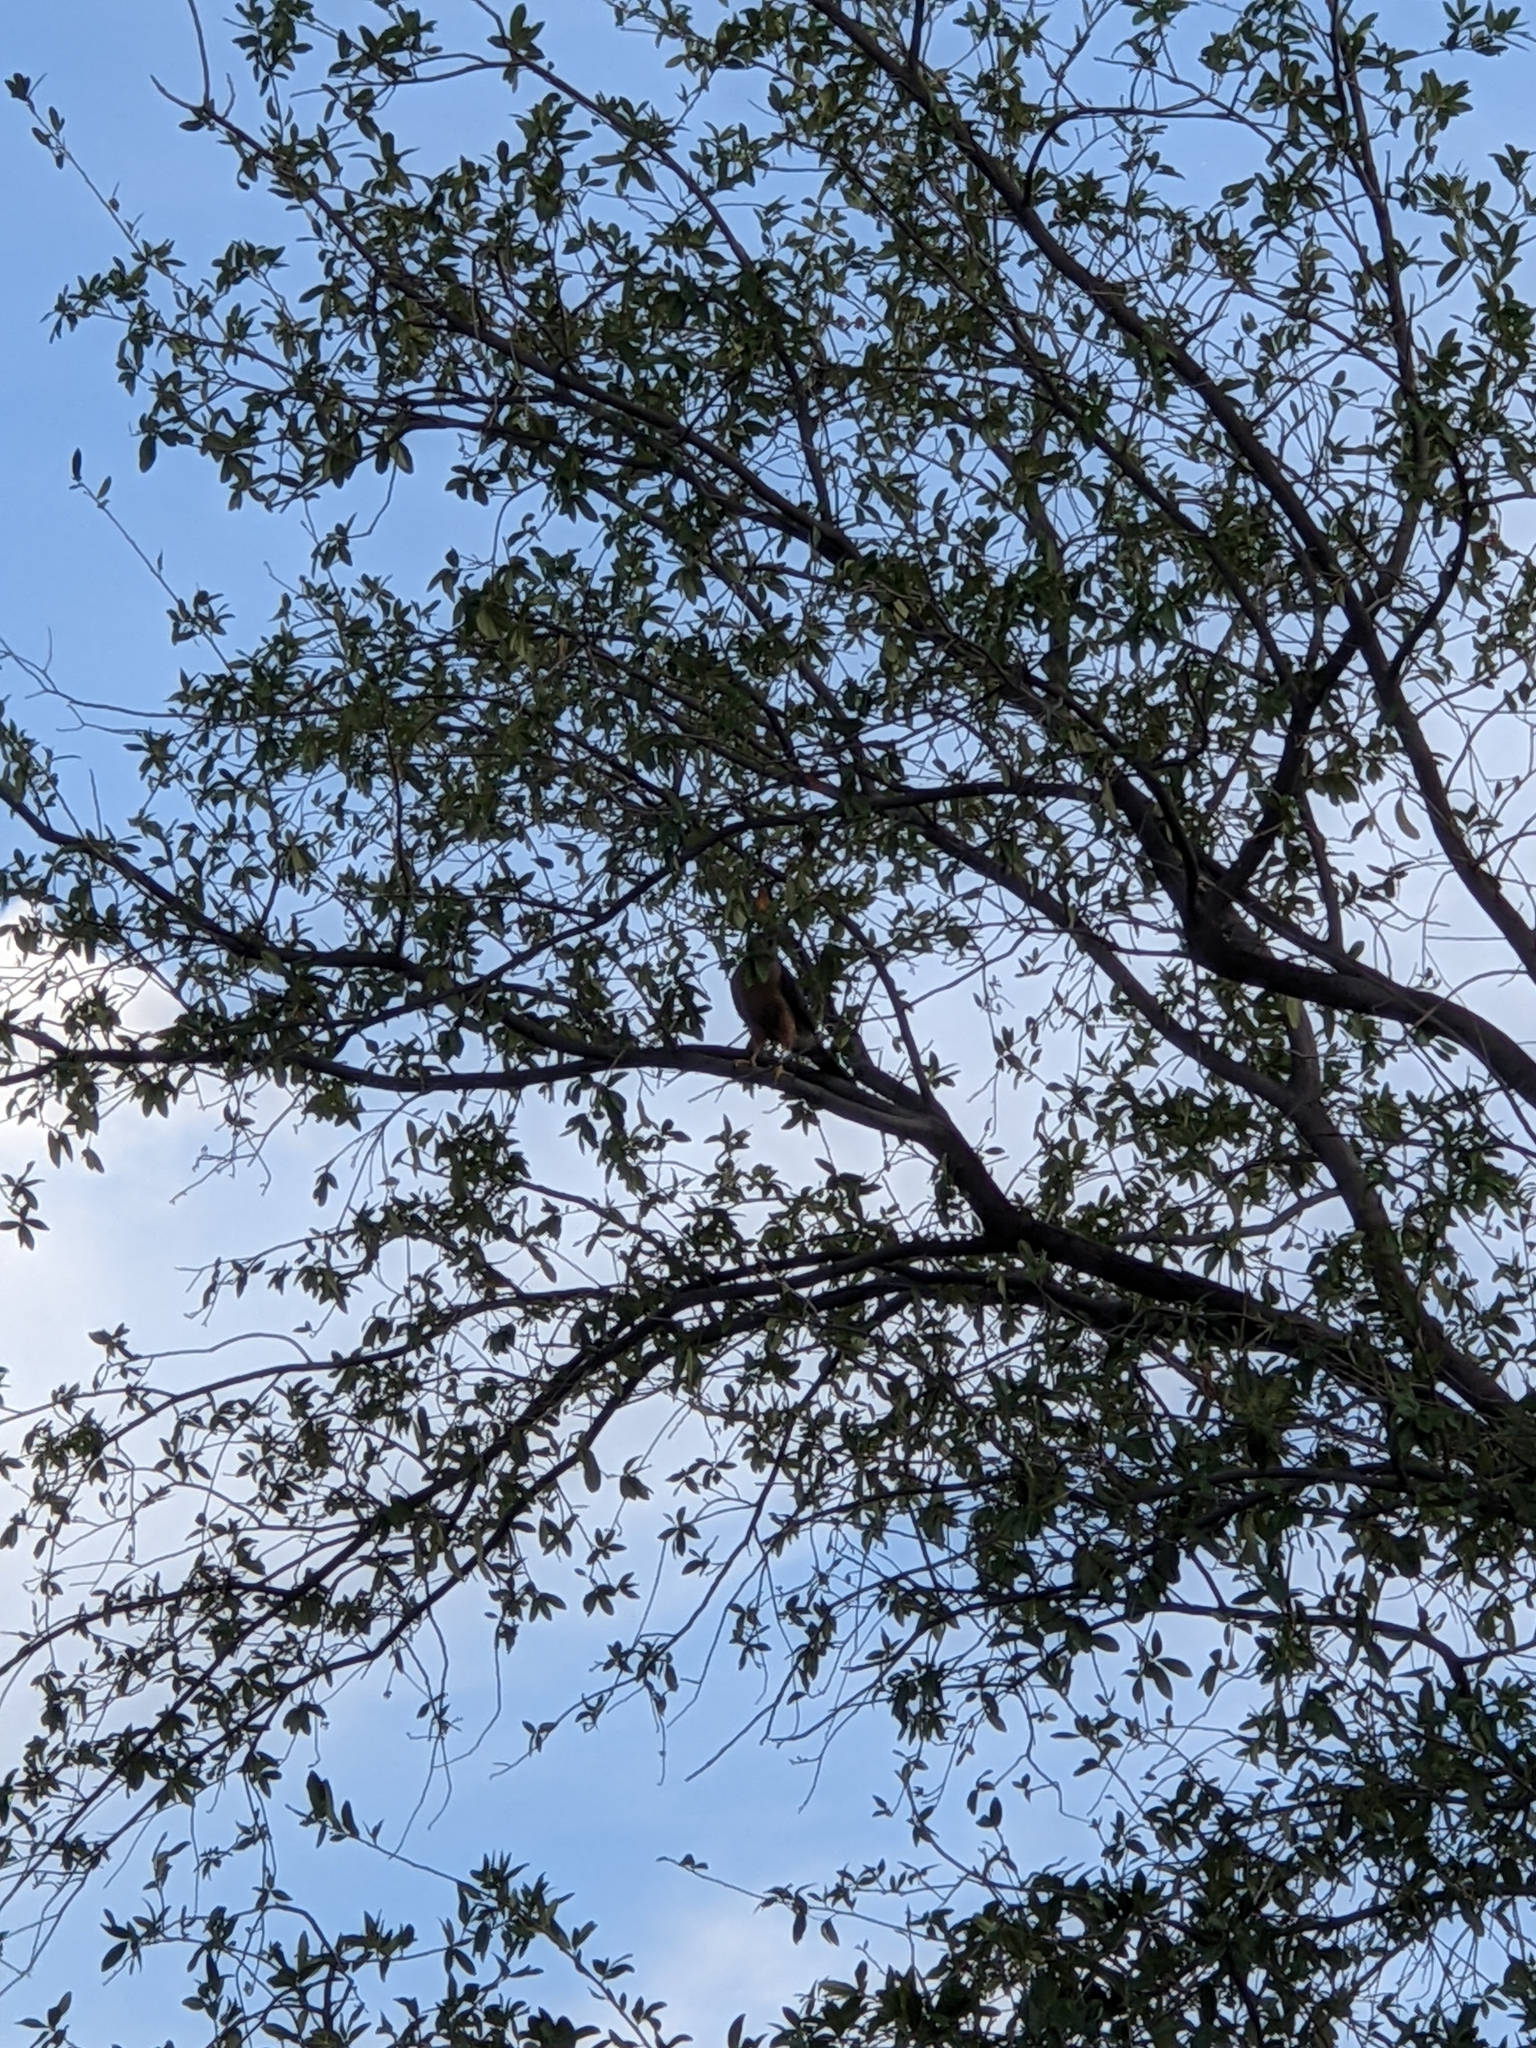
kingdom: Animalia
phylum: Chordata
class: Aves
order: Accipitriformes
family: Accipitridae
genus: Accipiter
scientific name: Accipiter cooperii
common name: Cooper's hawk
